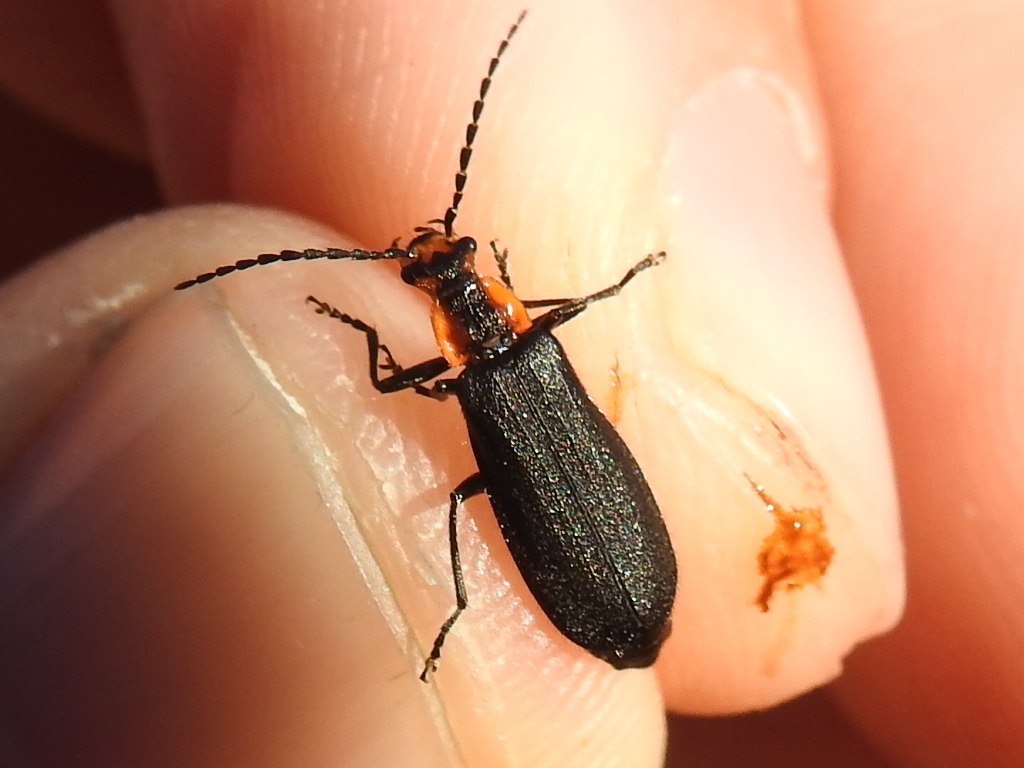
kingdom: Animalia
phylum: Arthropoda
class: Insecta
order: Coleoptera
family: Cantharidae
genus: Podabrus
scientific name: Podabrus rugosulus
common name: Wrinkled soldier beetle
